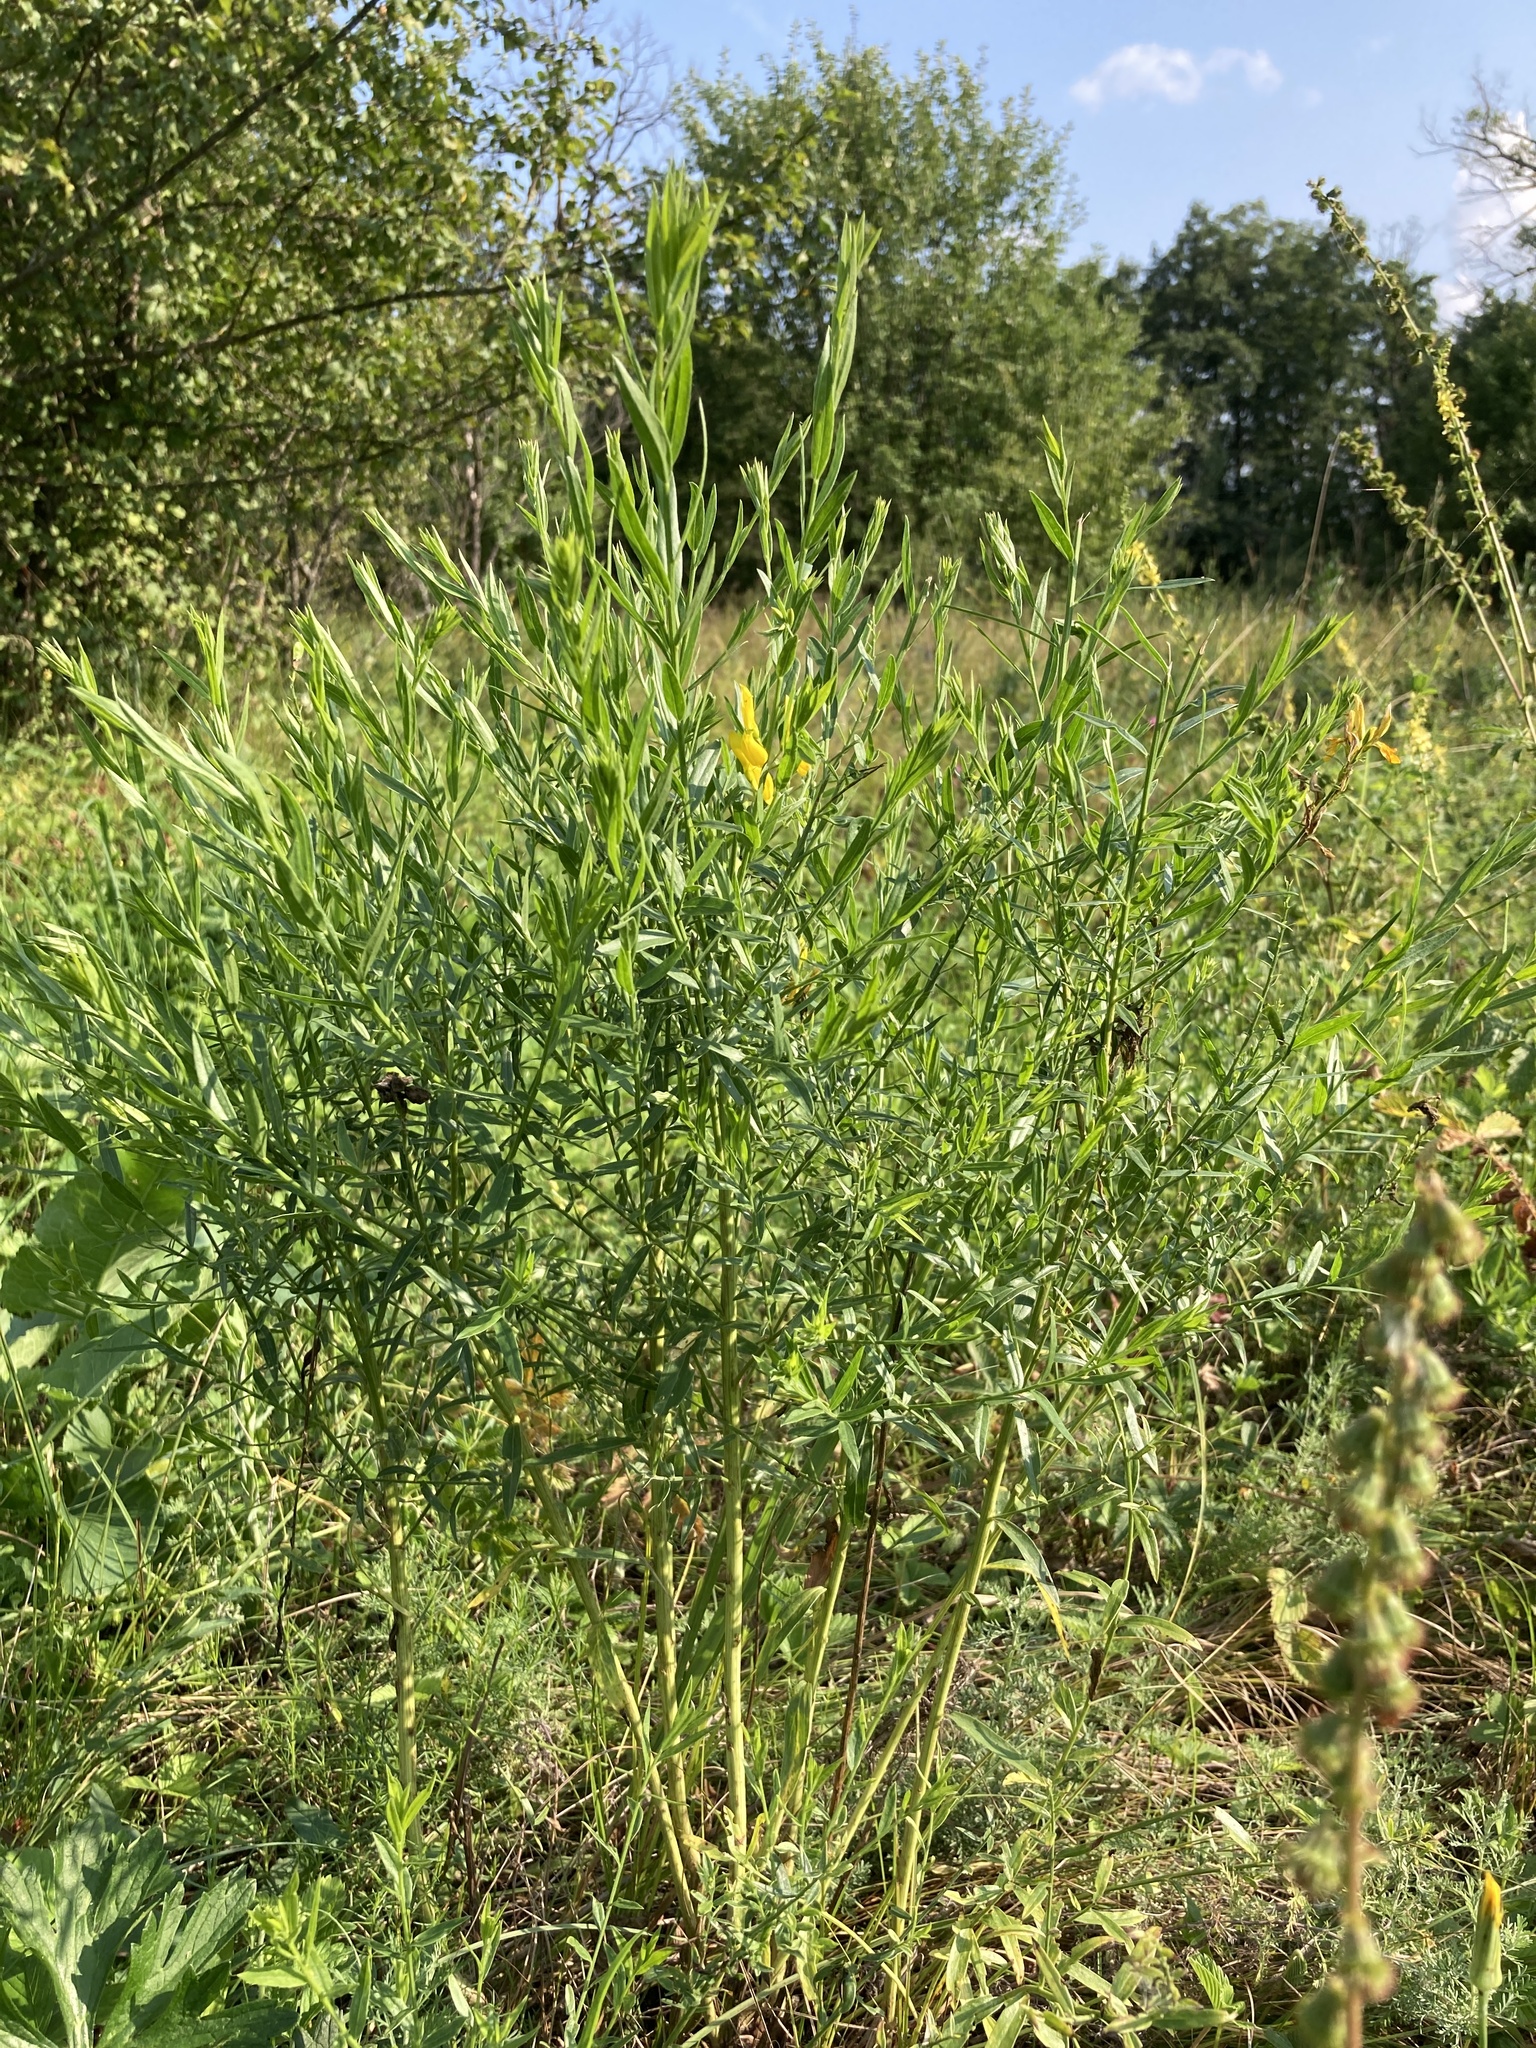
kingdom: Plantae
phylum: Tracheophyta
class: Magnoliopsida
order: Fabales
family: Fabaceae
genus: Genista
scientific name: Genista tinctoria
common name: Dyer's greenweed
